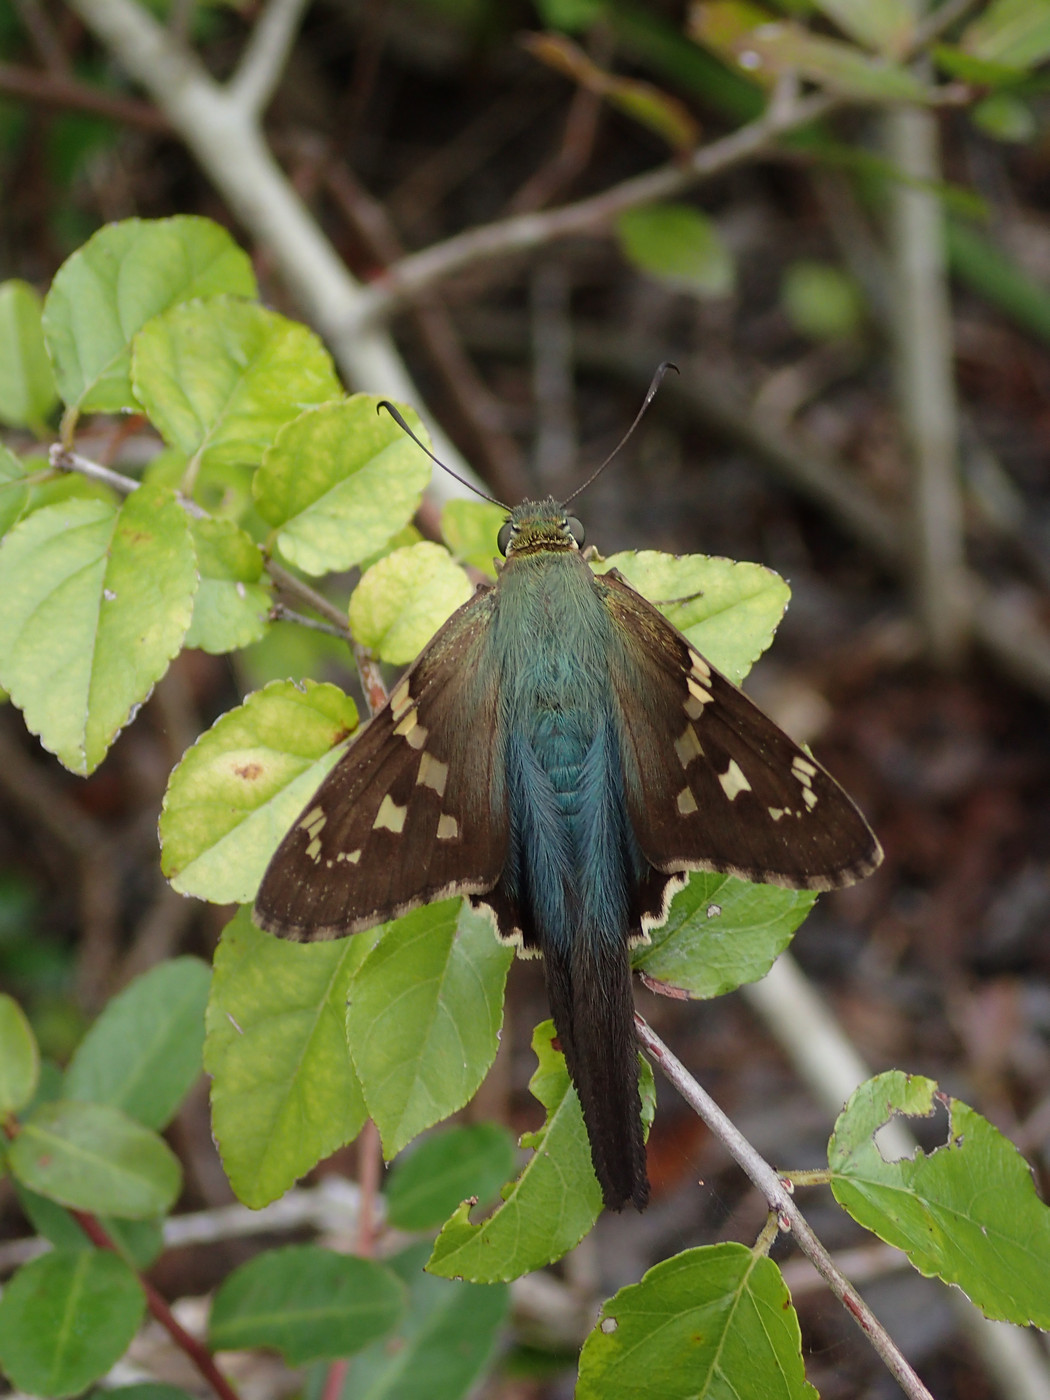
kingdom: Animalia
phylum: Arthropoda
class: Insecta
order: Lepidoptera
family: Hesperiidae
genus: Urbanus
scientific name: Urbanus proteus
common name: Long-tailed skipper
